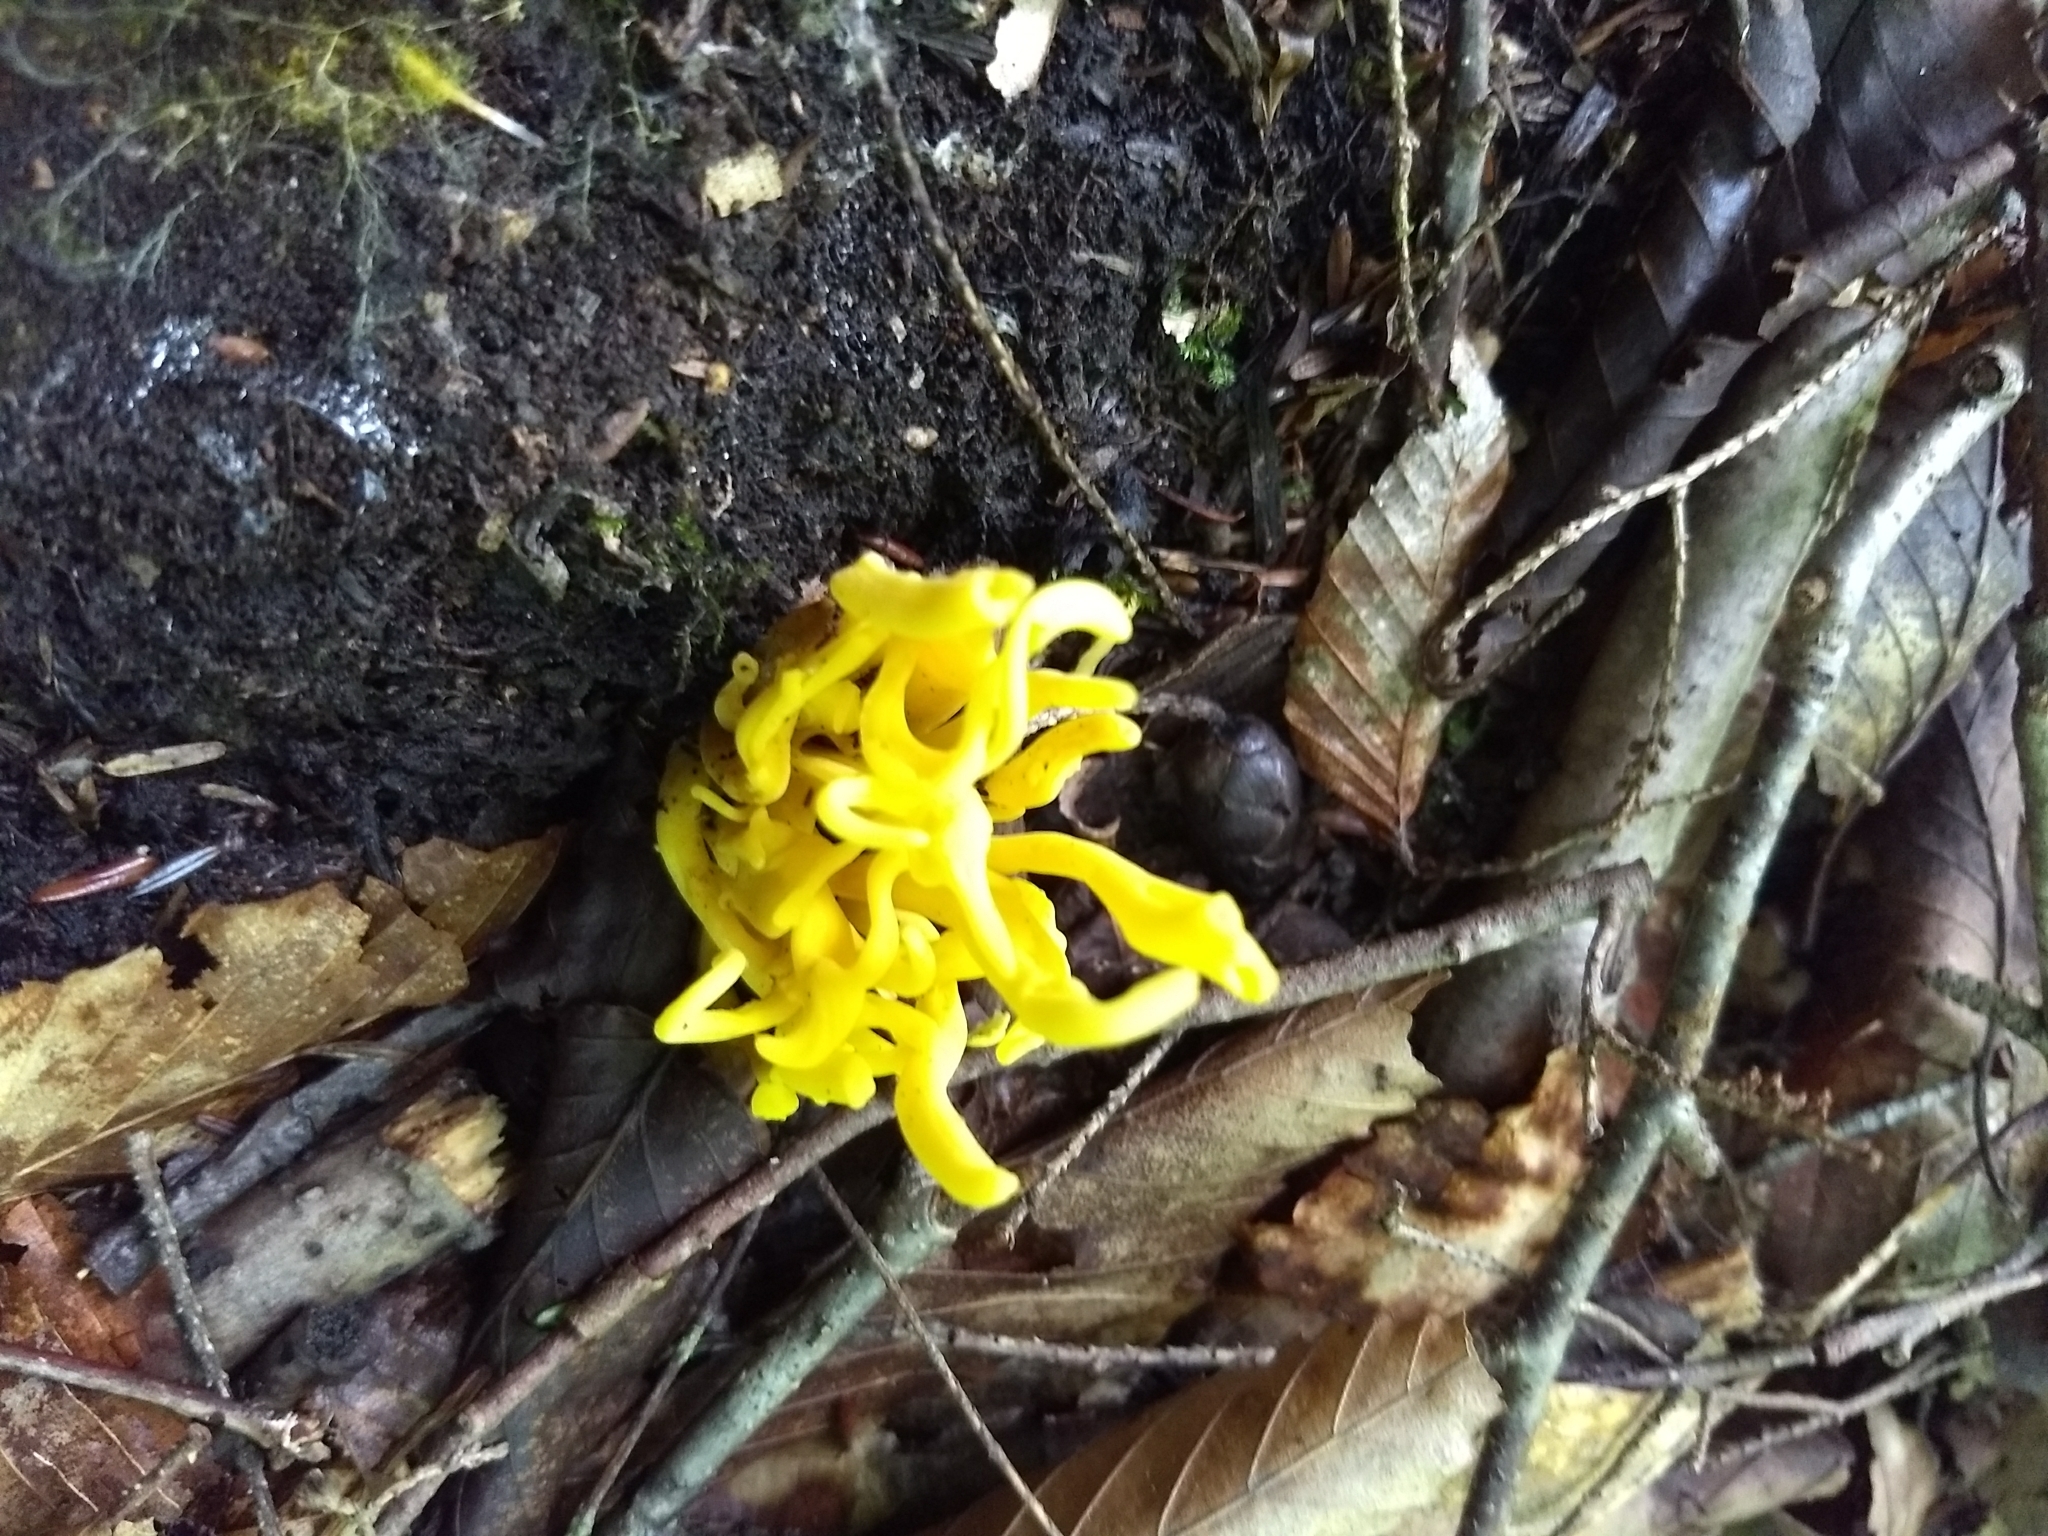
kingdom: Fungi
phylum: Basidiomycota
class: Agaricomycetes
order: Agaricales
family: Clavariaceae
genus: Clavulinopsis
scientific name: Clavulinopsis fusiformis
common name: Golden spindles
